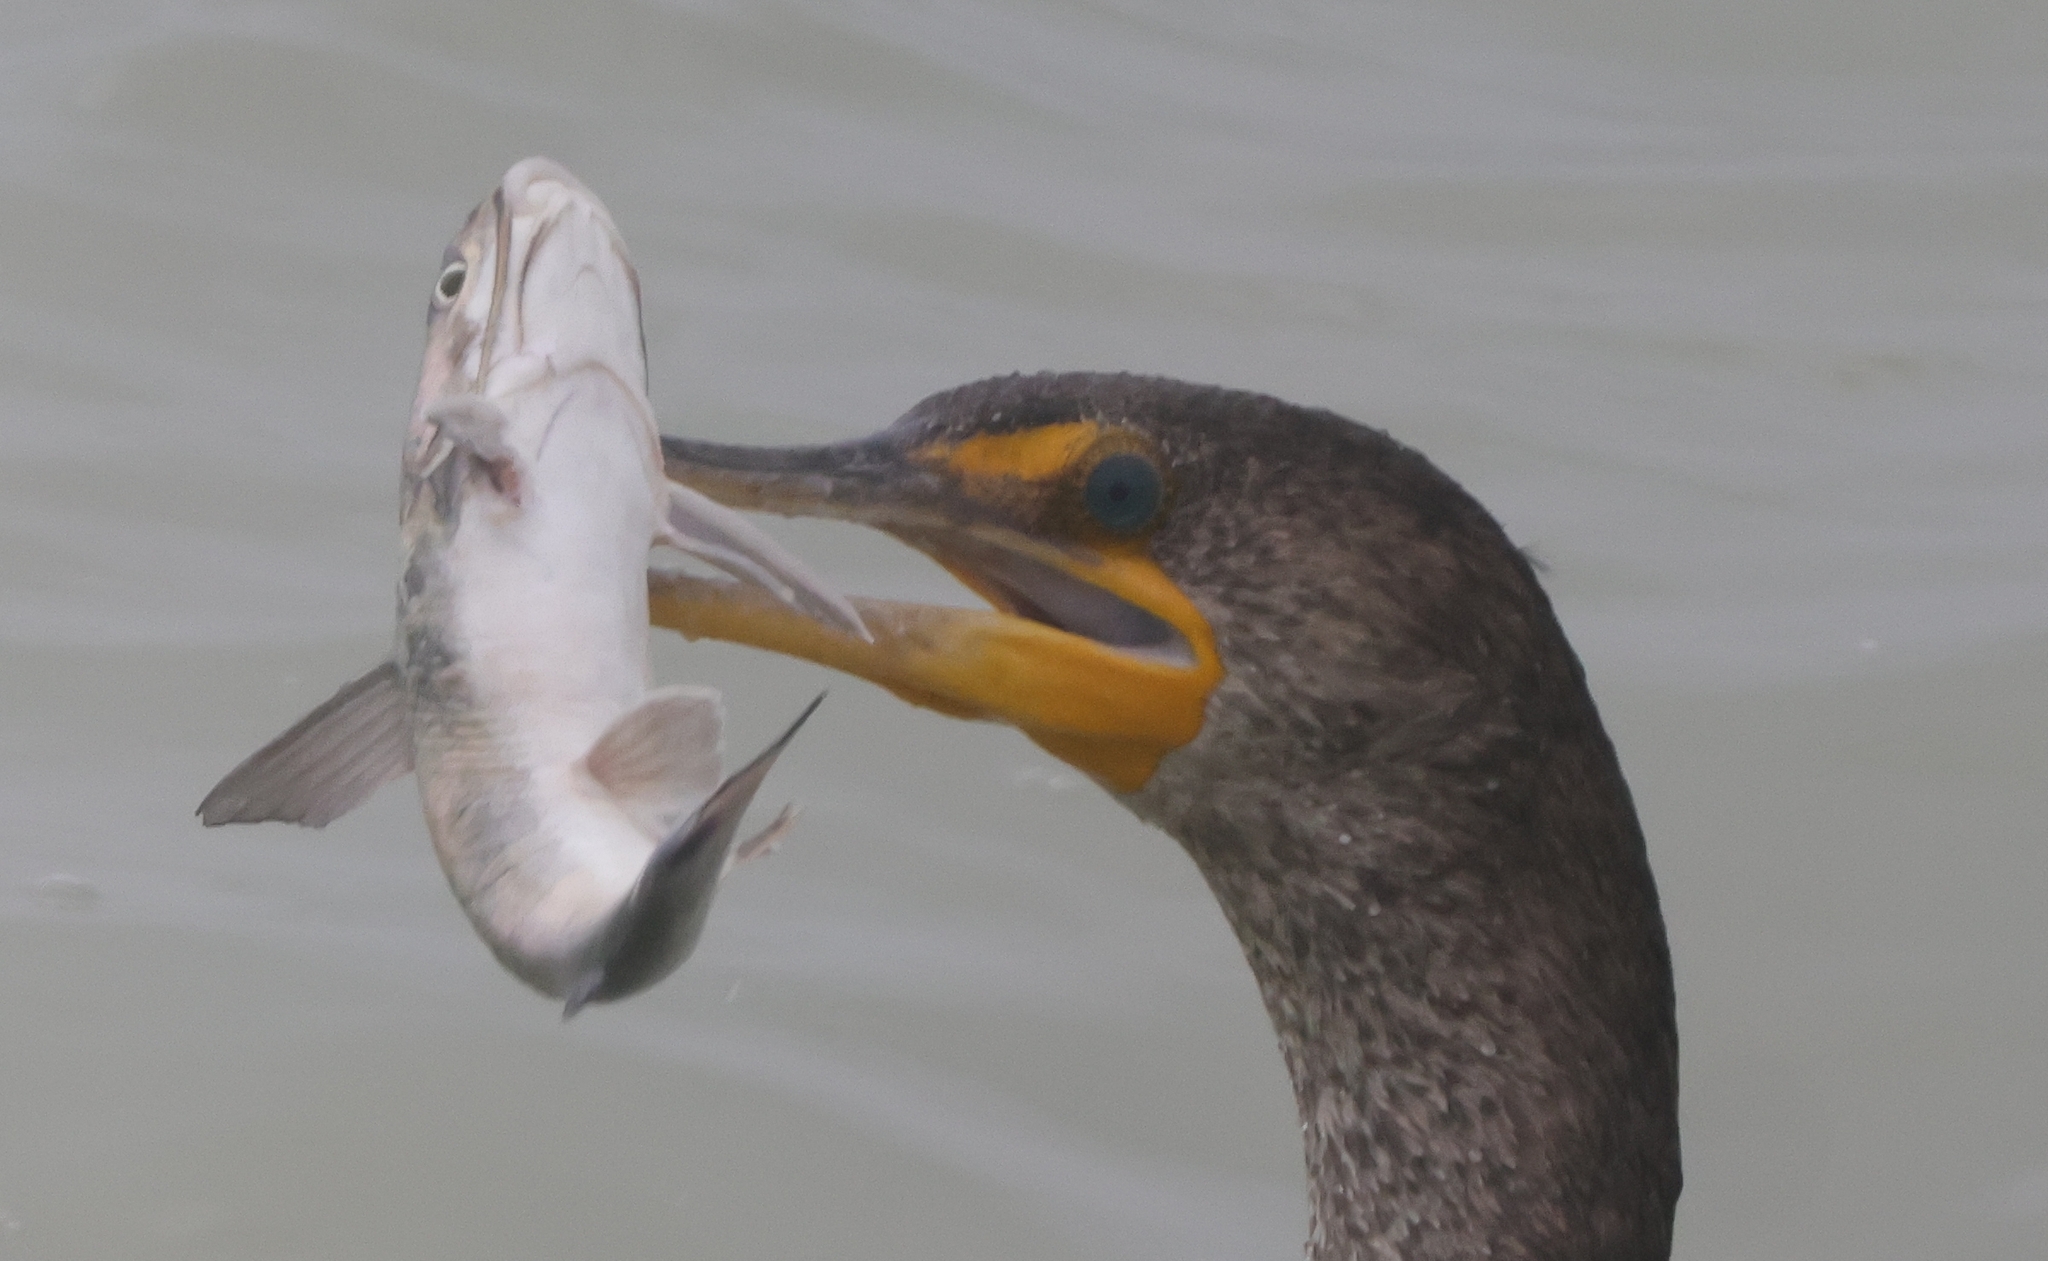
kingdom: Animalia
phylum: Chordata
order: Siluriformes
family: Ariidae
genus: Ariopsis
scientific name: Ariopsis felis
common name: Hardhead catfish
